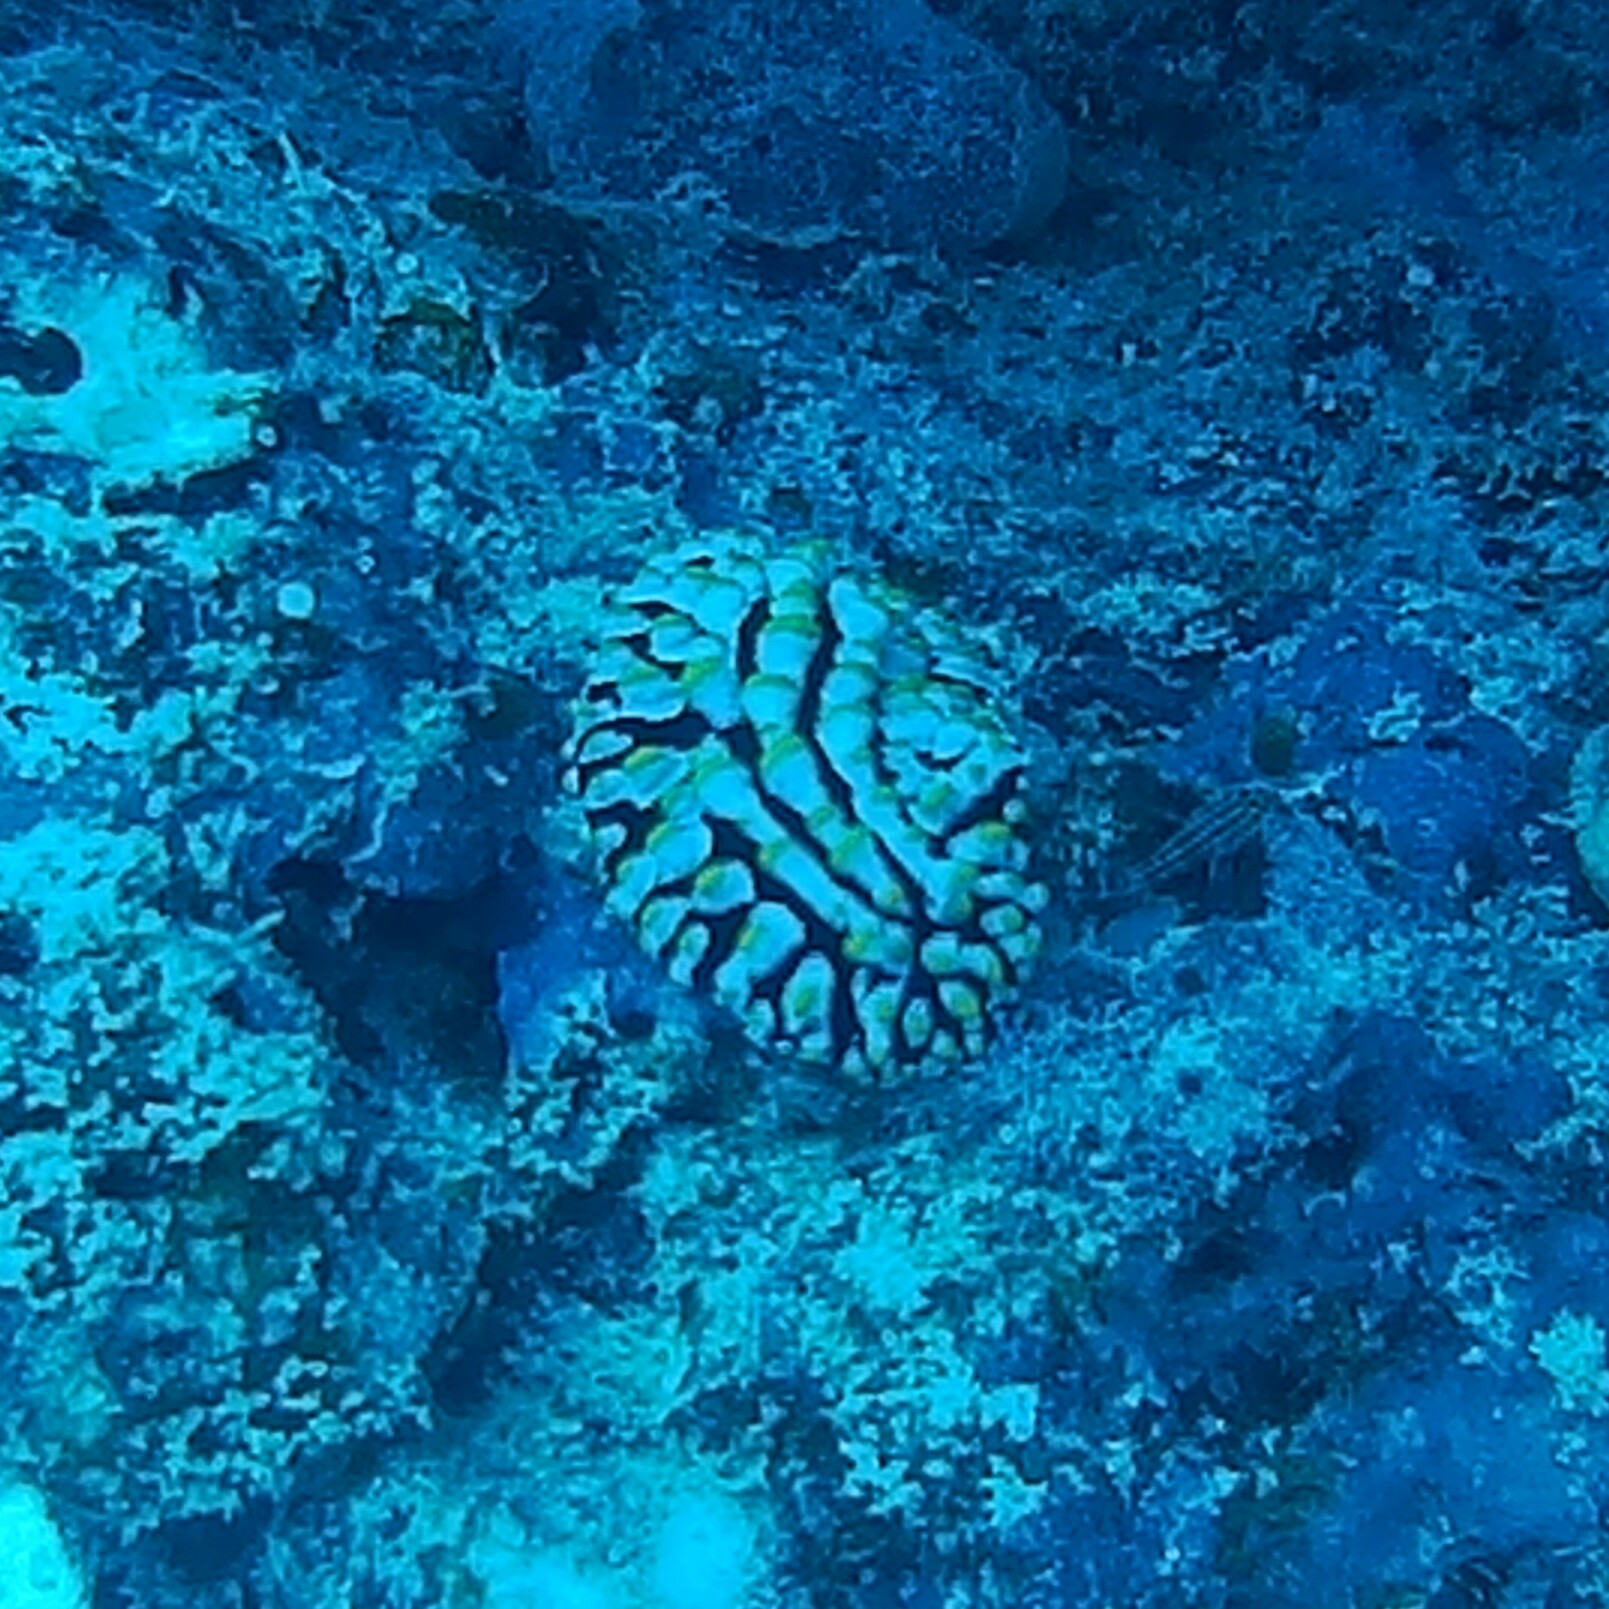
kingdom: Animalia
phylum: Mollusca
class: Gastropoda
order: Nudibranchia
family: Phyllidiidae
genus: Phyllidia
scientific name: Phyllidia varicosa
